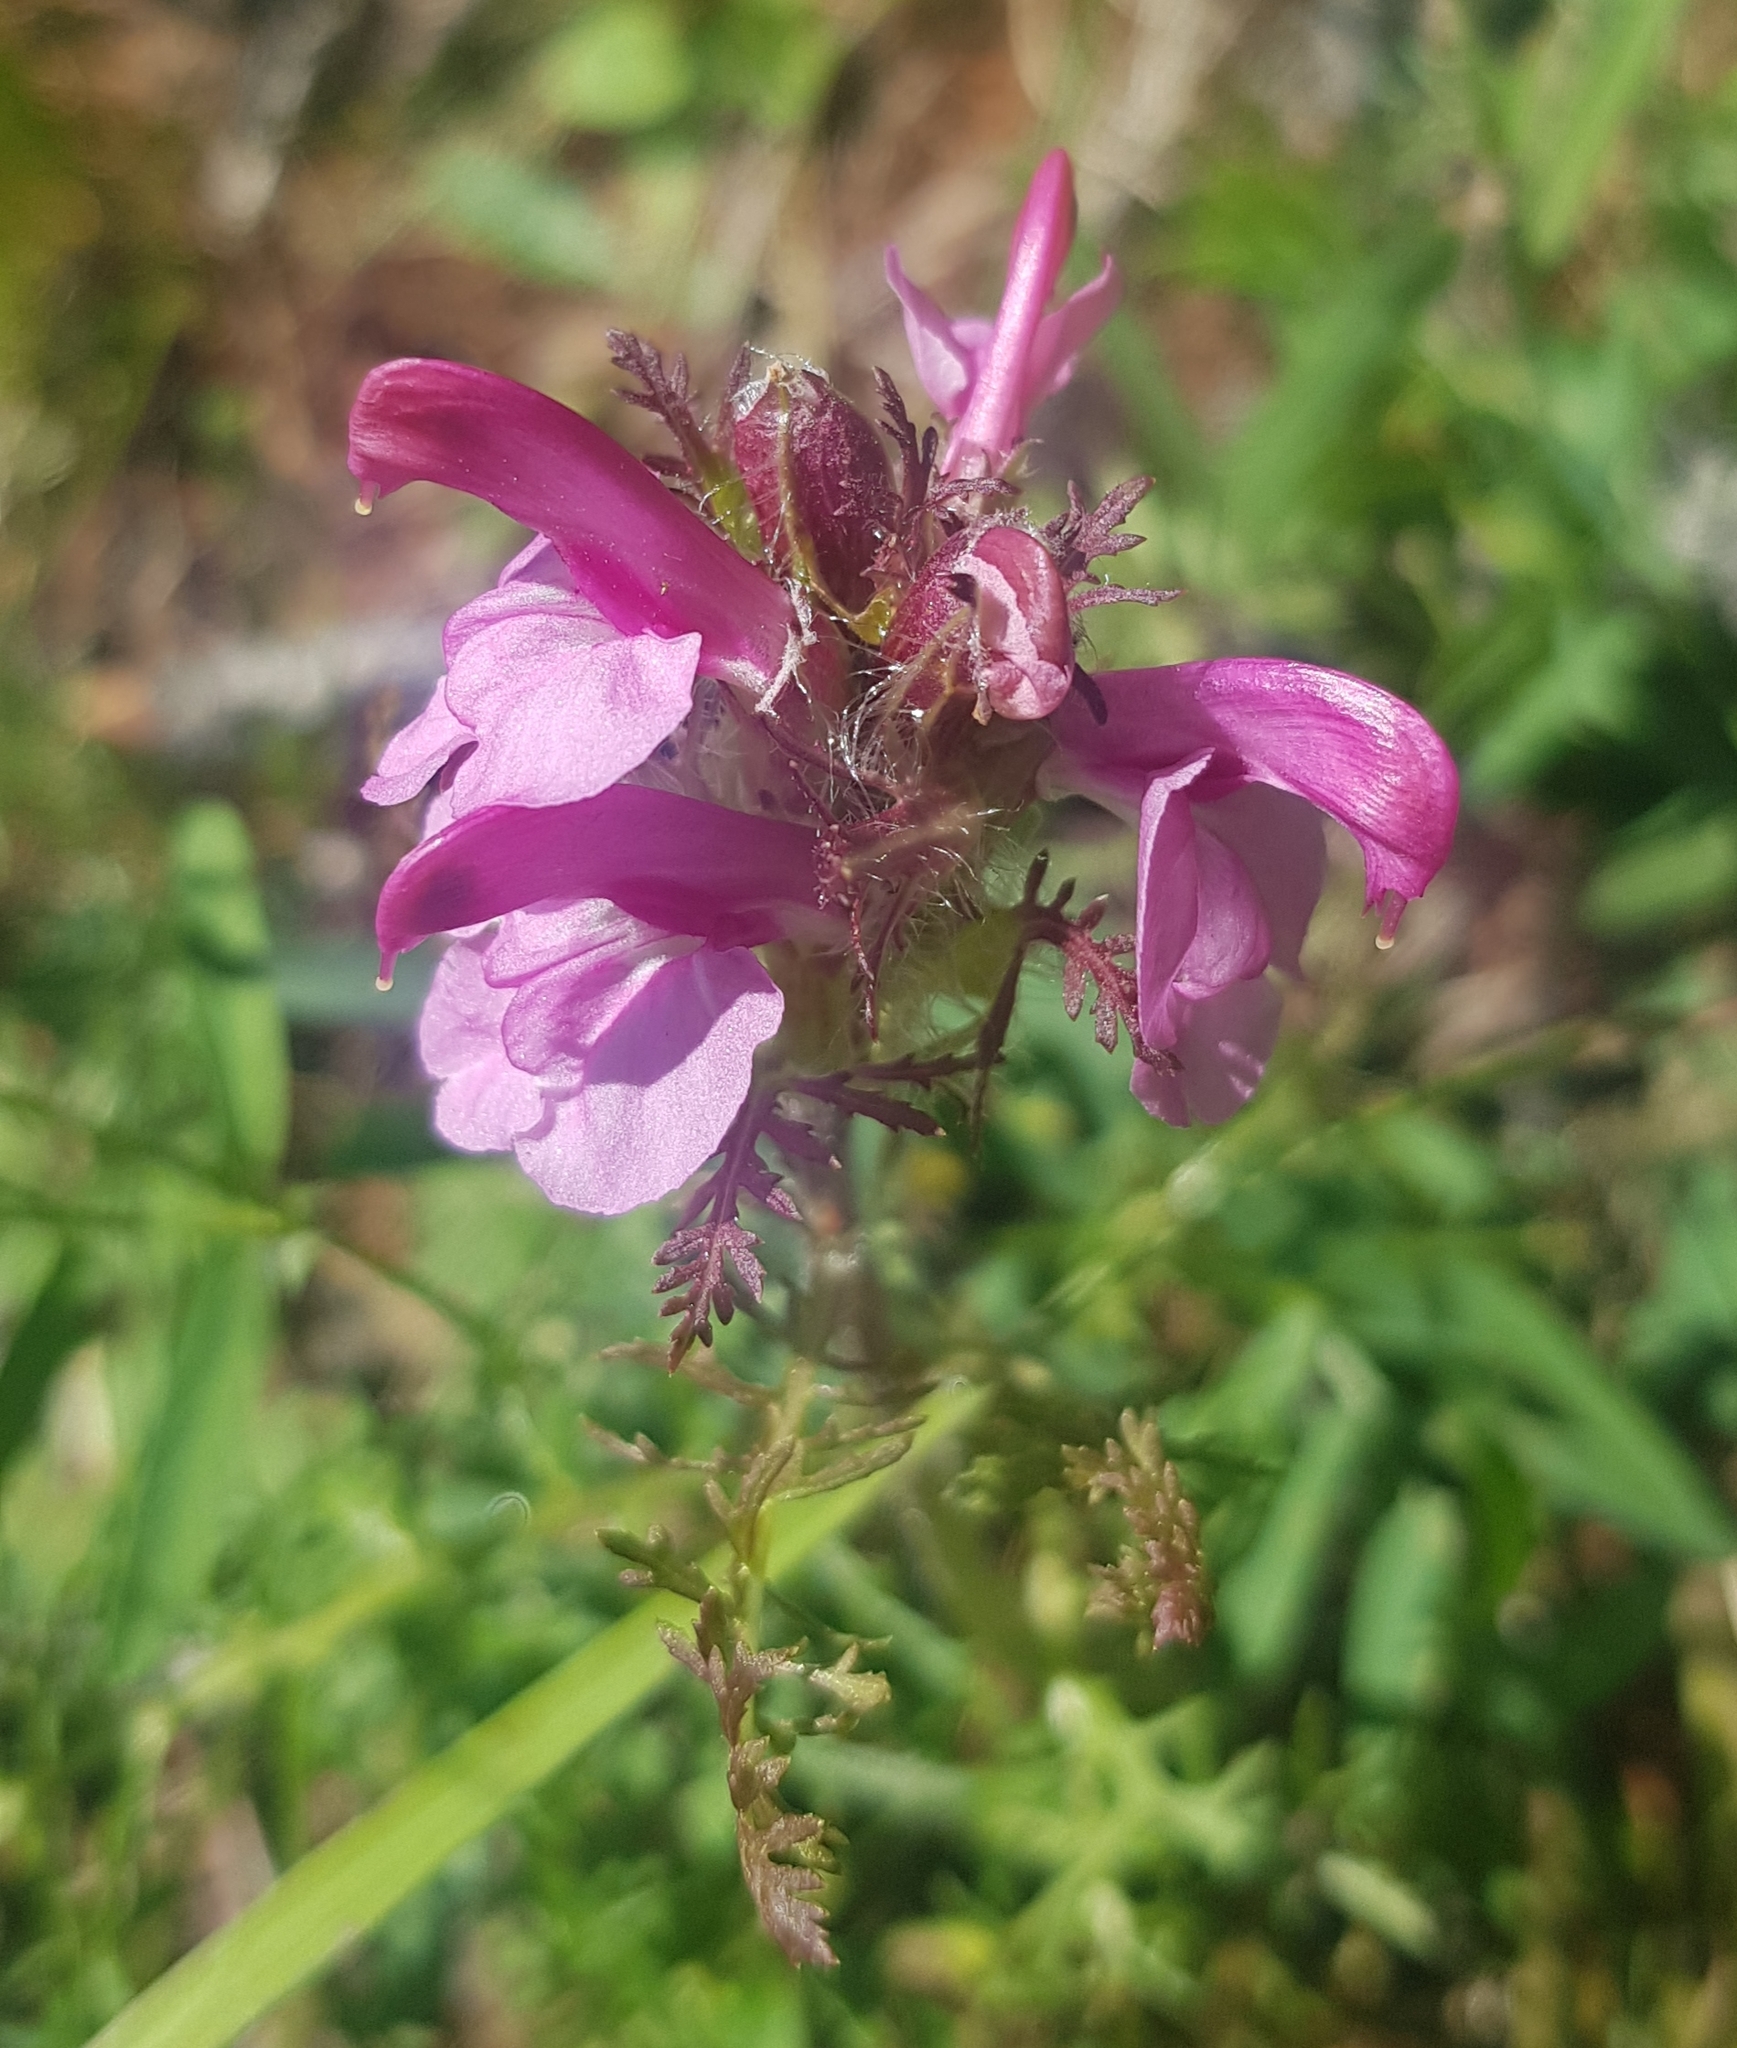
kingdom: Plantae
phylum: Tracheophyta
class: Magnoliopsida
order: Lamiales
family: Orobanchaceae
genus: Pedicularis
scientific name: Pedicularis rubens
